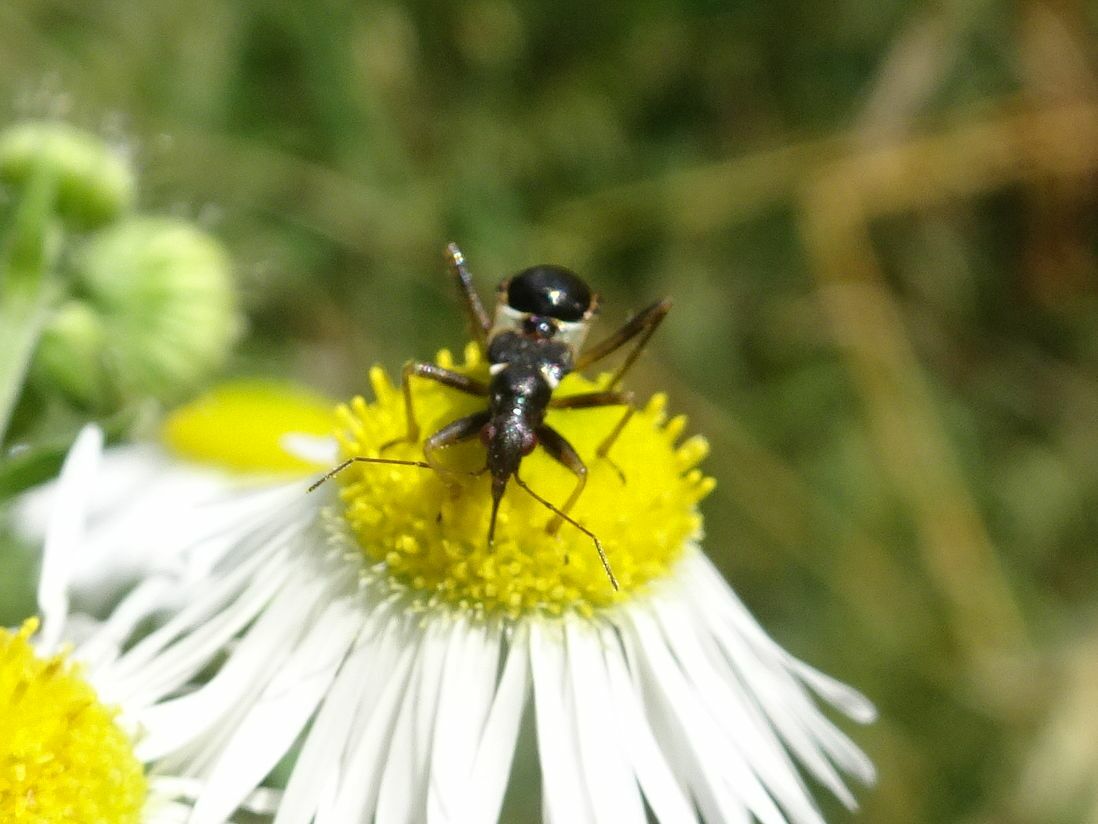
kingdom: Animalia
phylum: Arthropoda
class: Insecta
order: Hemiptera
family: Nabidae
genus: Himacerus
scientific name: Himacerus mirmicoides
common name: Ant damsel bug
